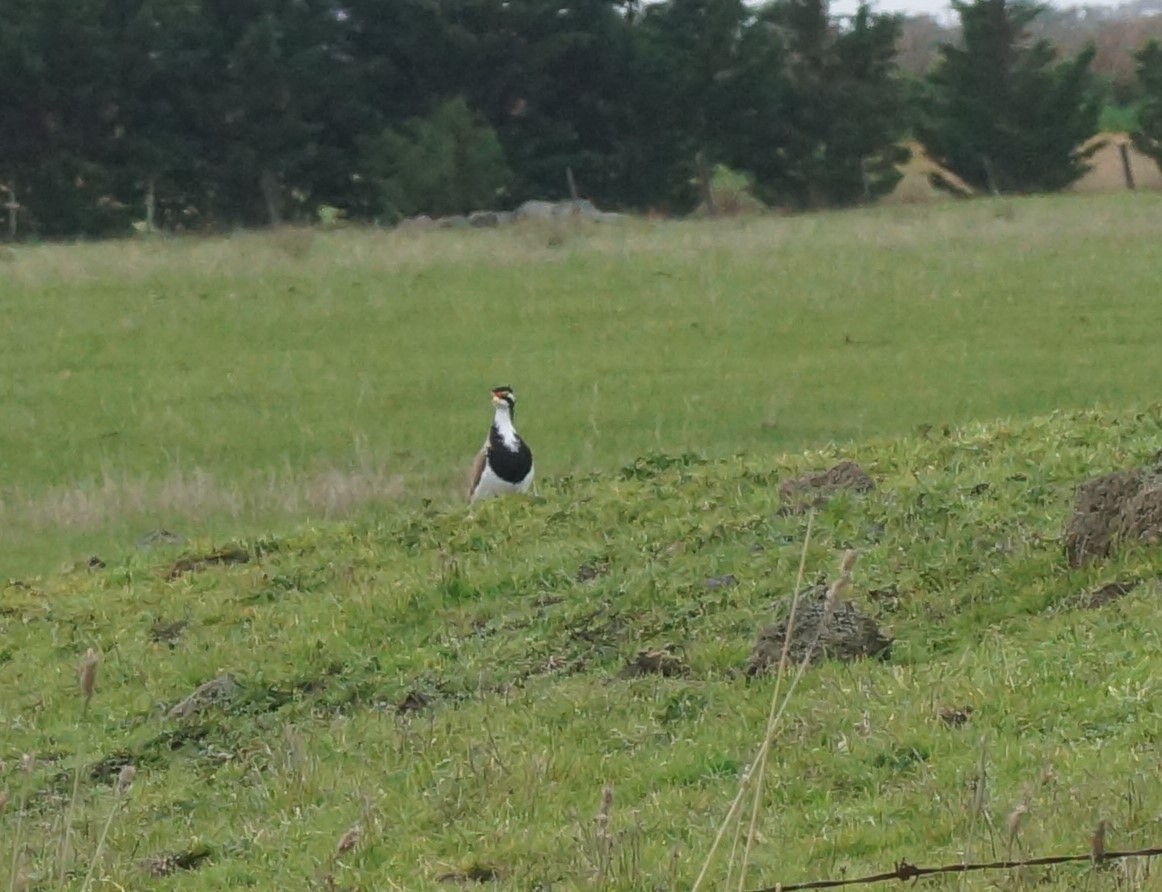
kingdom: Animalia
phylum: Chordata
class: Aves
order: Charadriiformes
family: Charadriidae
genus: Vanellus
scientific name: Vanellus tricolor
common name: Banded lapwing
